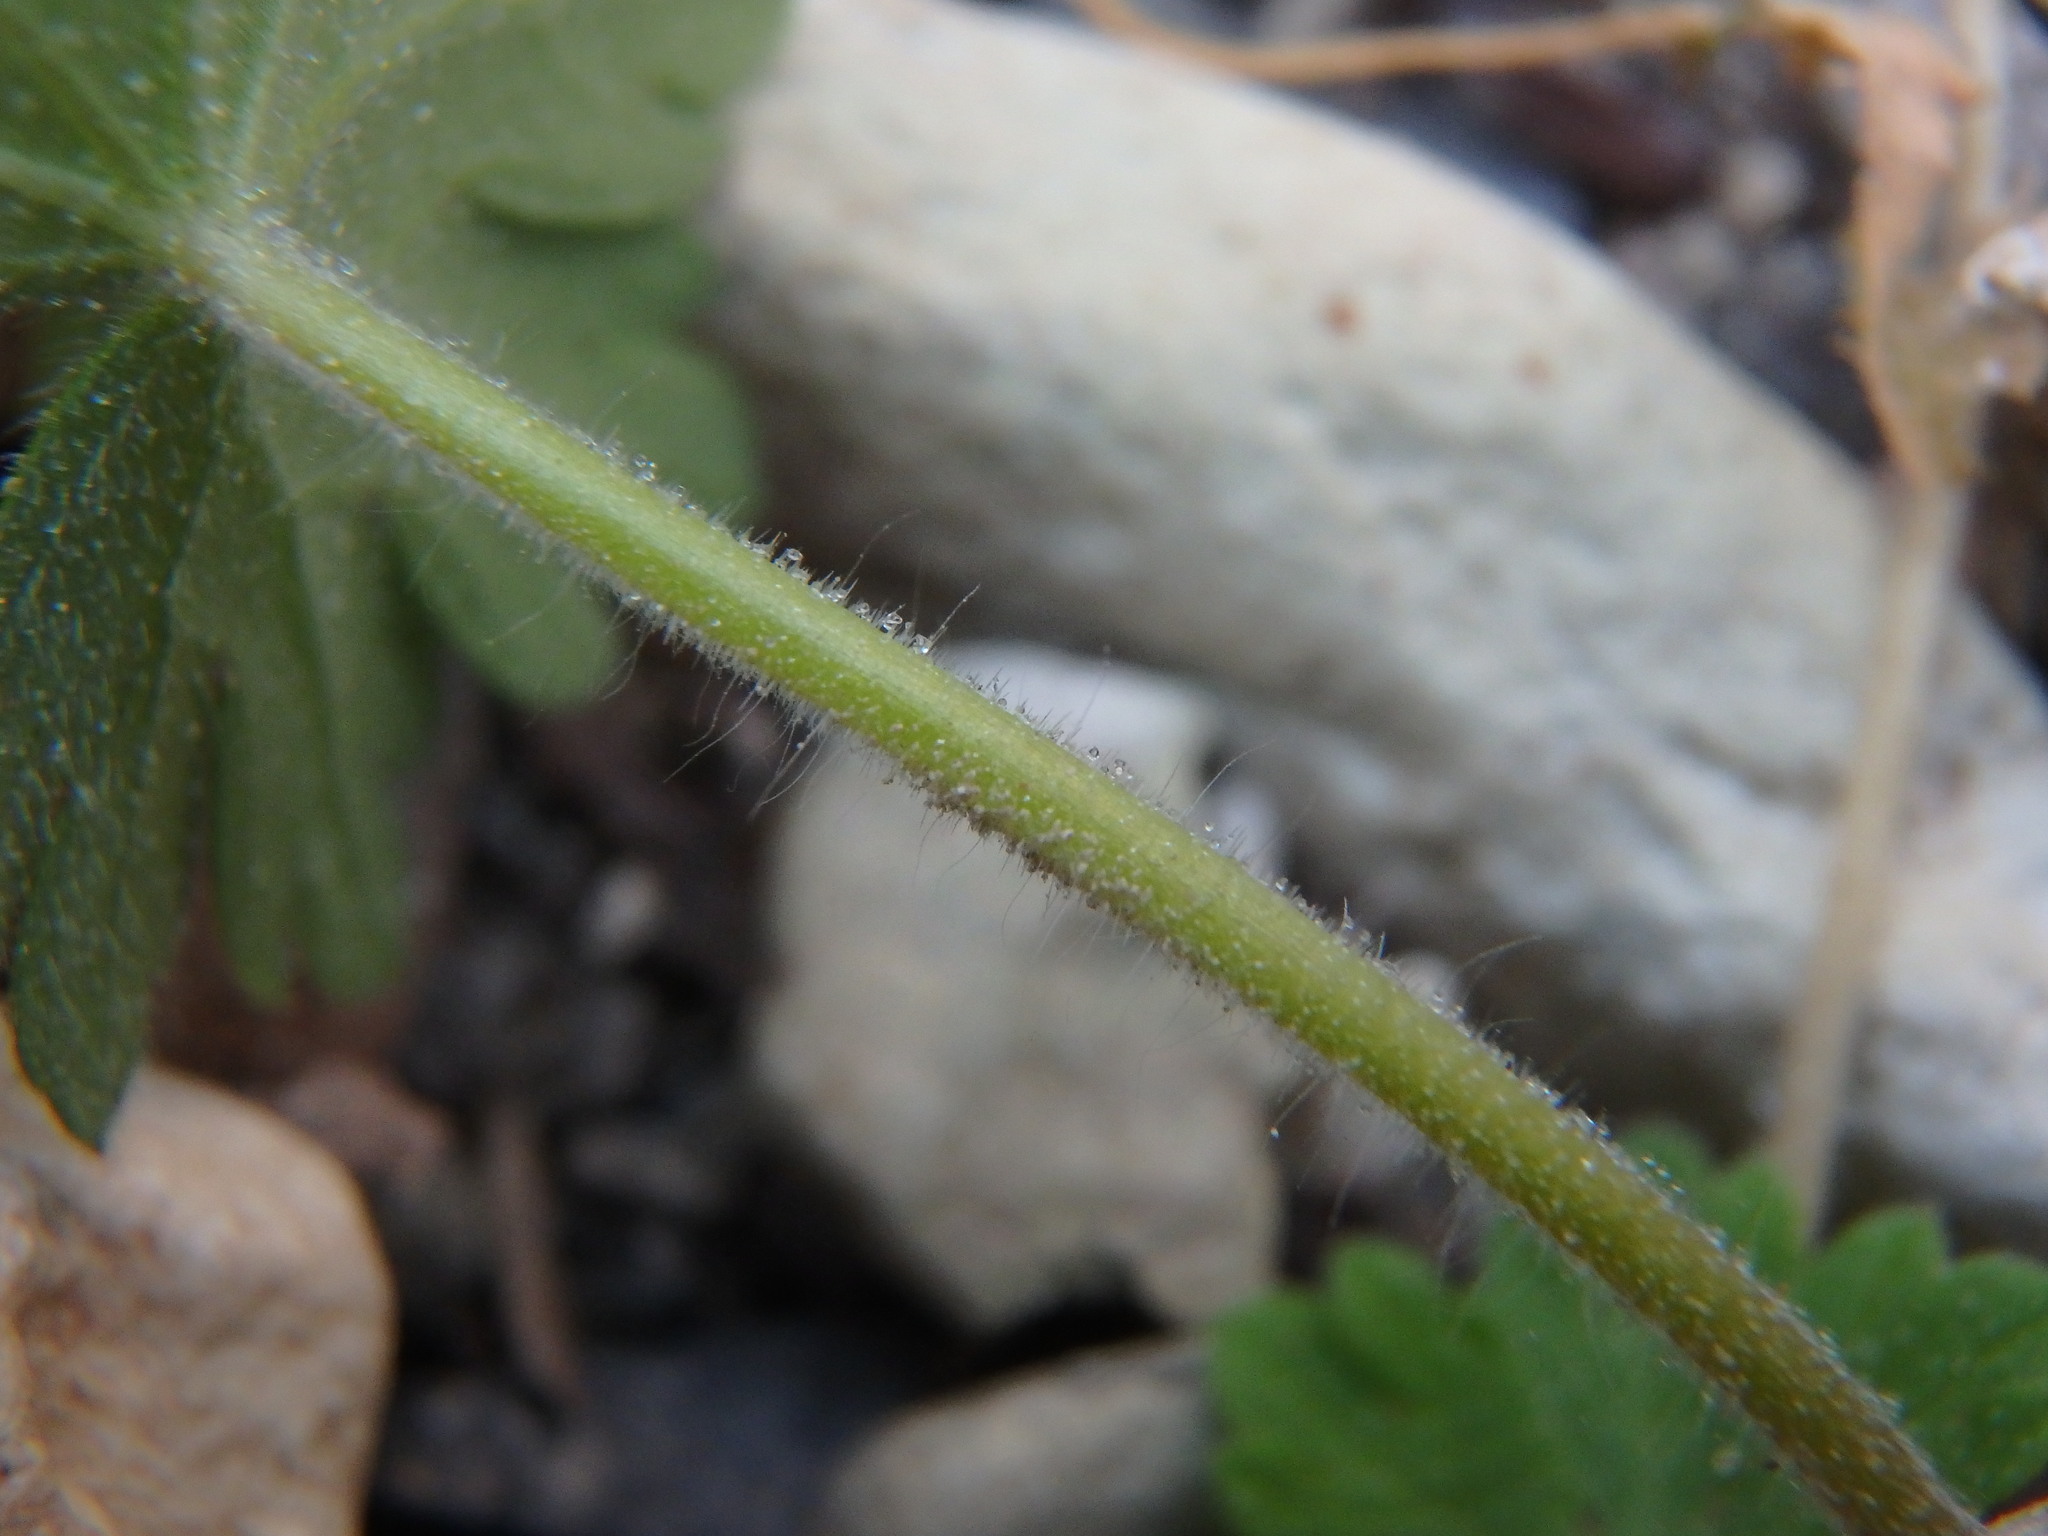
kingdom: Plantae
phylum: Tracheophyta
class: Magnoliopsida
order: Geraniales
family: Geraniaceae
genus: Geranium
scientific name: Geranium molle
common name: Dove's-foot crane's-bill
